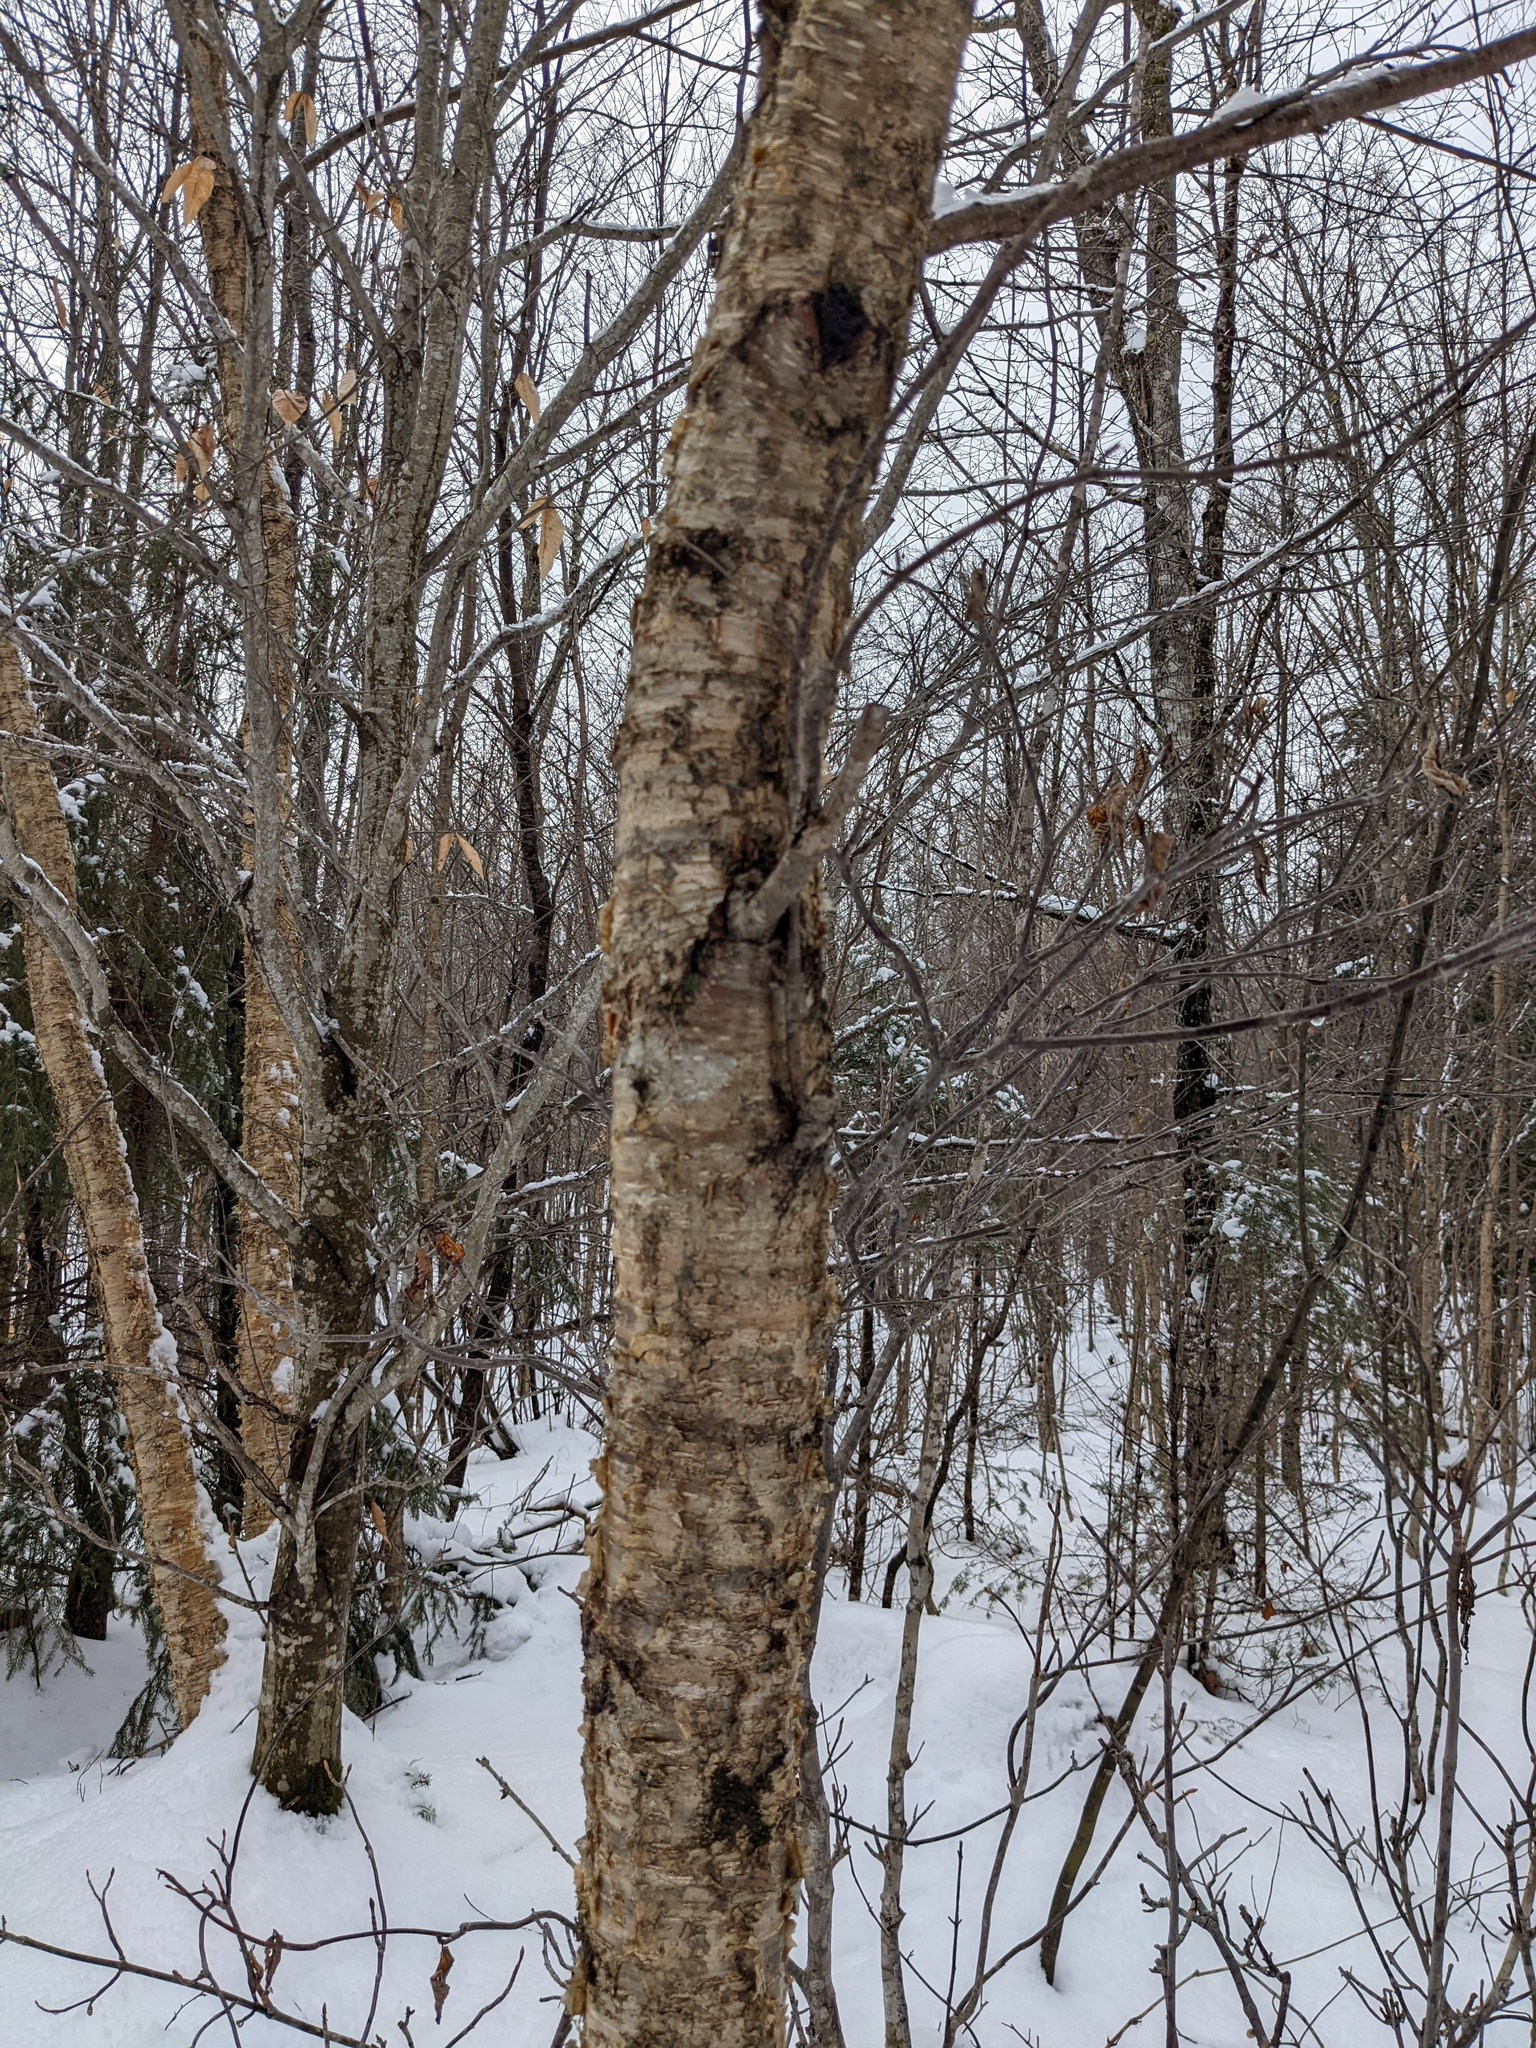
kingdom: Plantae
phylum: Tracheophyta
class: Magnoliopsida
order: Fagales
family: Betulaceae
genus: Betula
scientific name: Betula alleghaniensis
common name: Yellow birch
